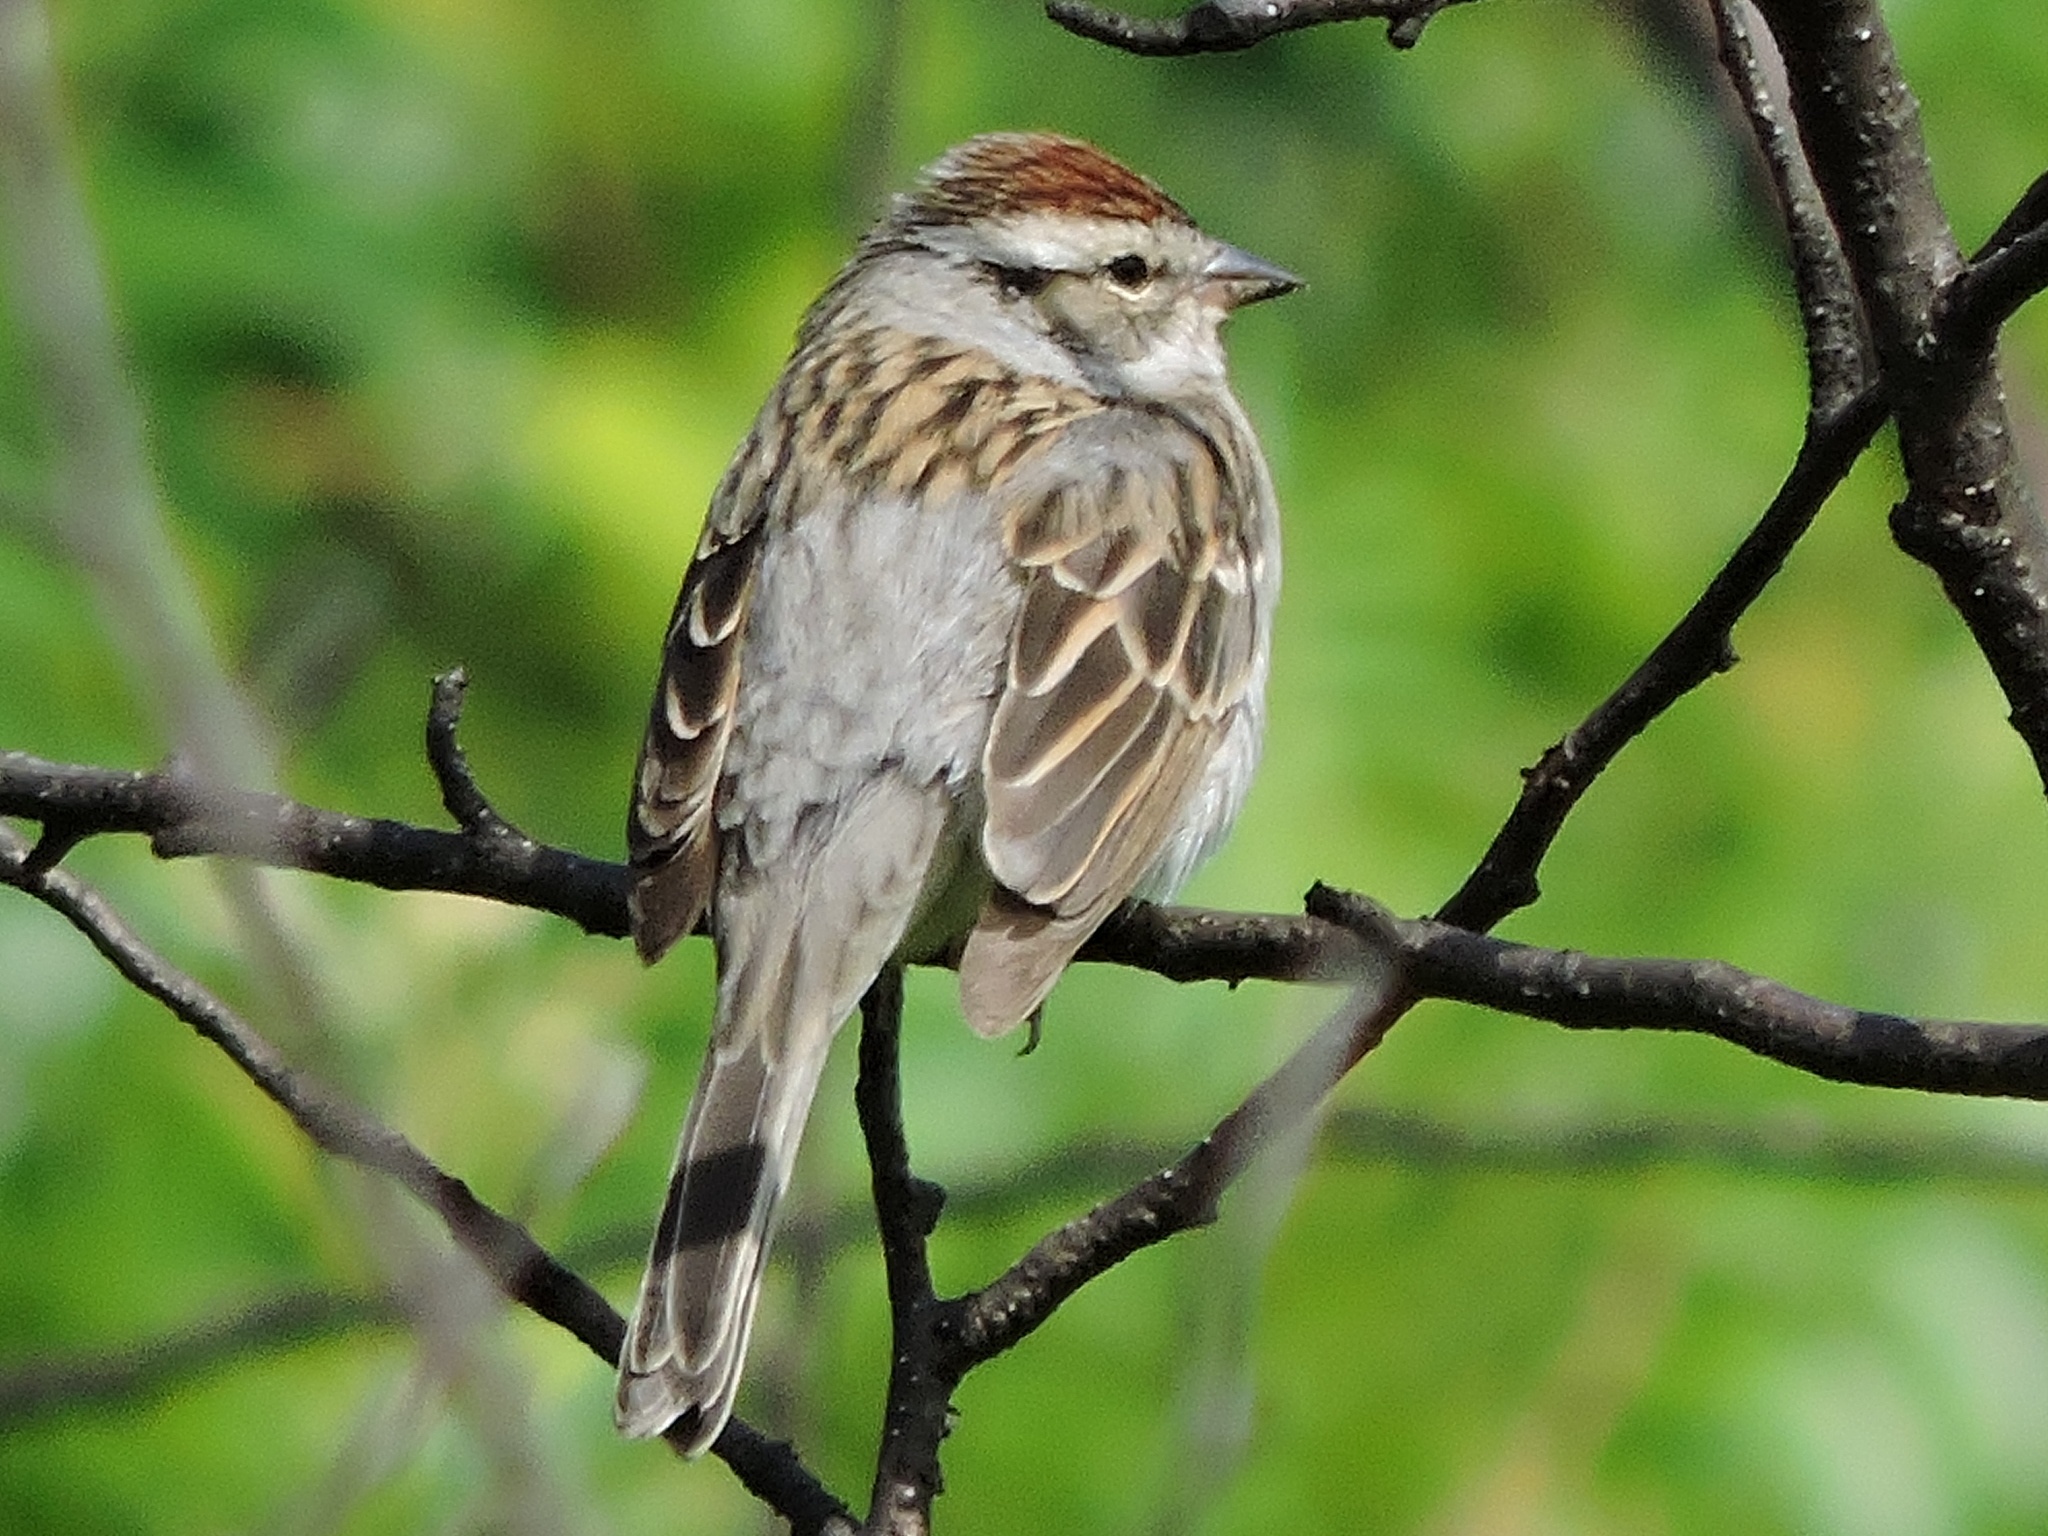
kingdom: Animalia
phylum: Chordata
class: Aves
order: Passeriformes
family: Passerellidae
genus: Spizella
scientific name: Spizella passerina
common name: Chipping sparrow
